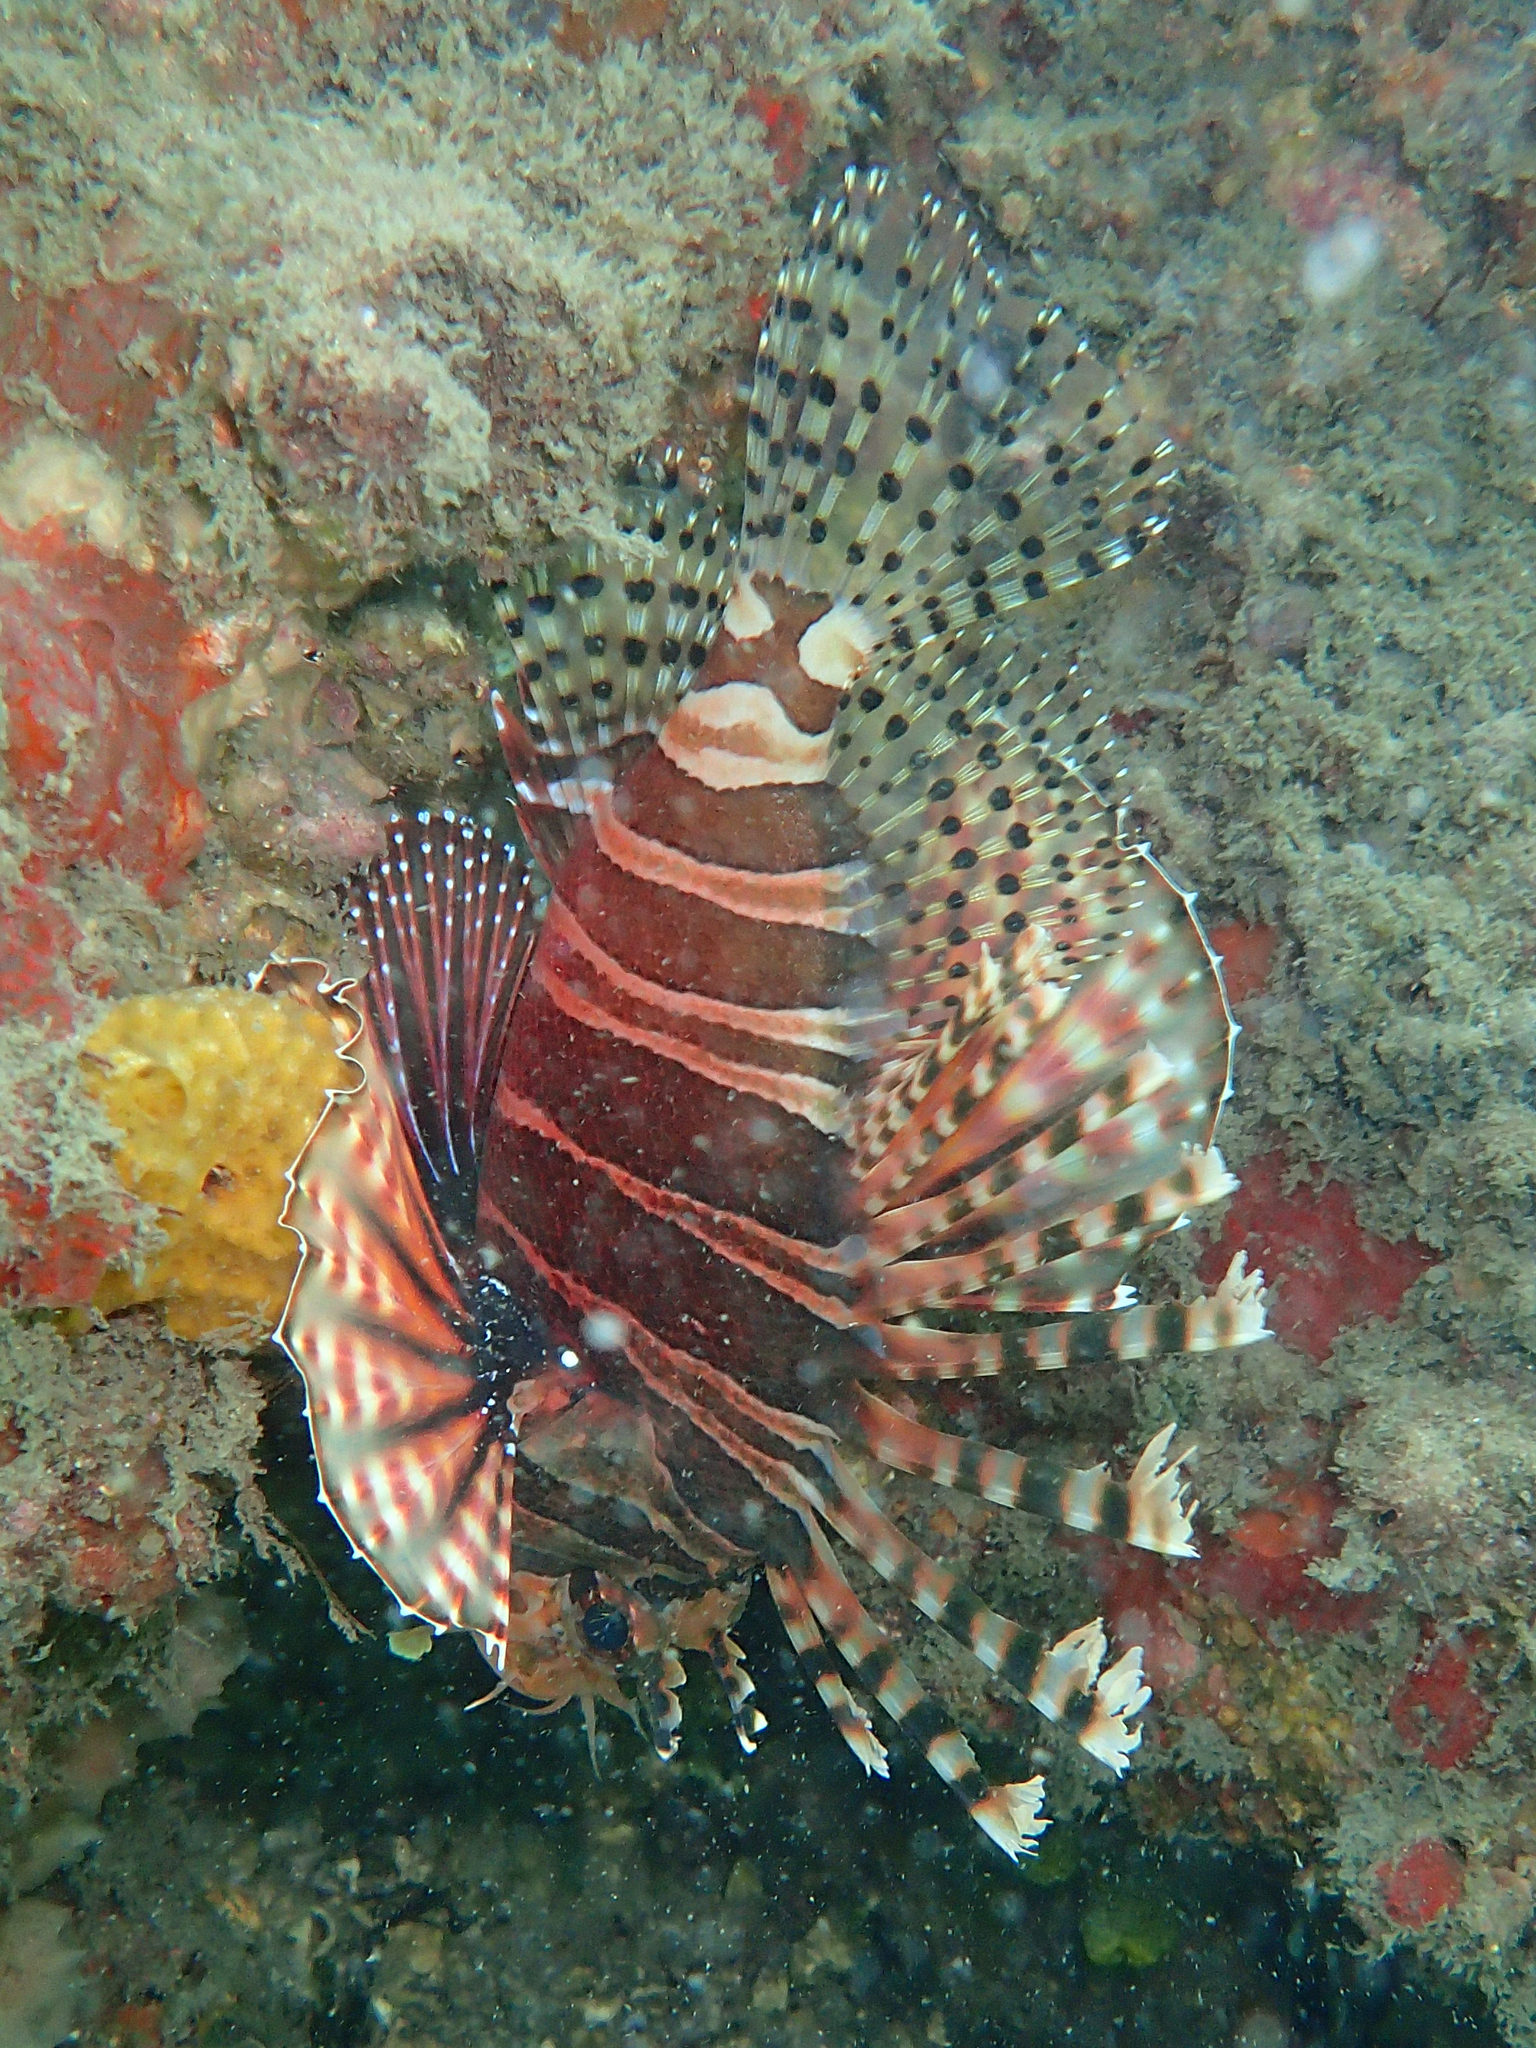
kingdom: Animalia
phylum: Chordata
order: Scorpaeniformes
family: Scorpaenidae
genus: Dendrochirus
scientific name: Dendrochirus zebra
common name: Zebra lionfish
